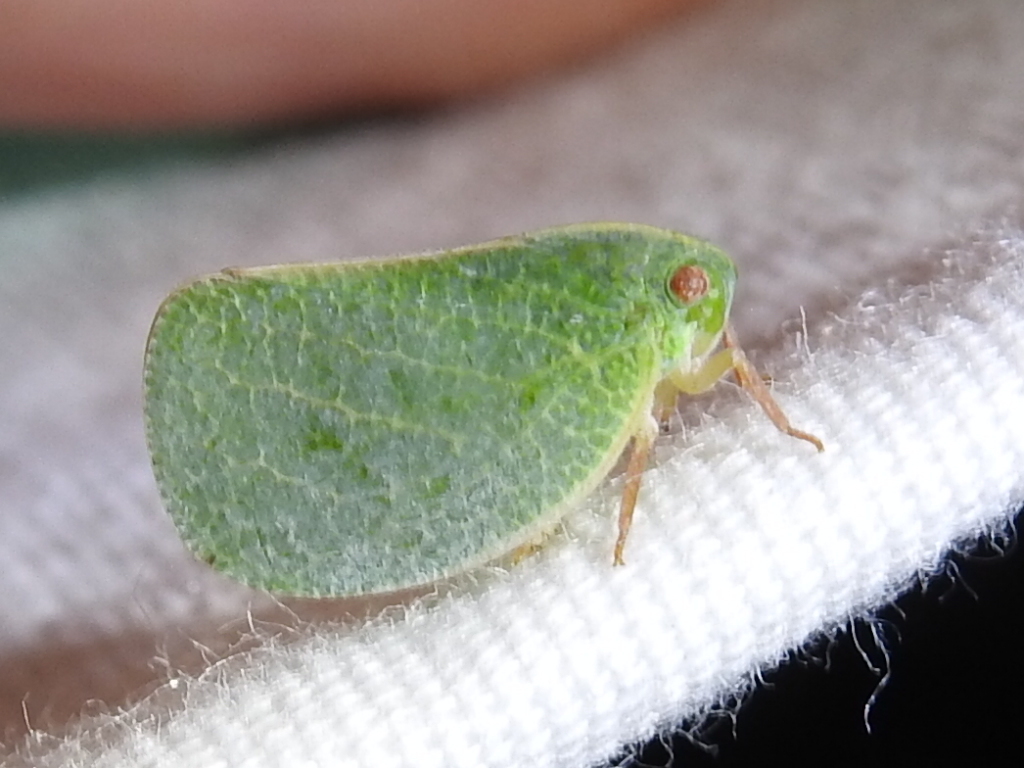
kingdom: Animalia
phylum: Arthropoda
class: Insecta
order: Hemiptera
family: Acanaloniidae
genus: Acanalonia
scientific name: Acanalonia servillei
